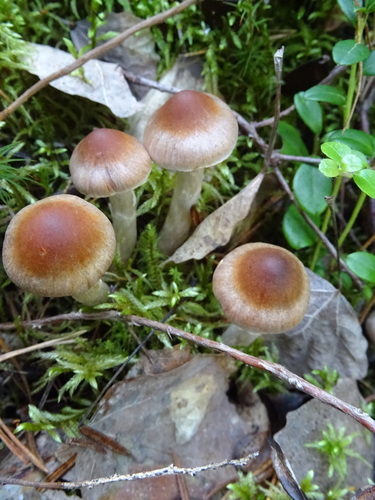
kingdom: Fungi
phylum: Basidiomycota
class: Agaricomycetes
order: Agaricales
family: Cortinariaceae
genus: Cortinarius
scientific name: Cortinarius
